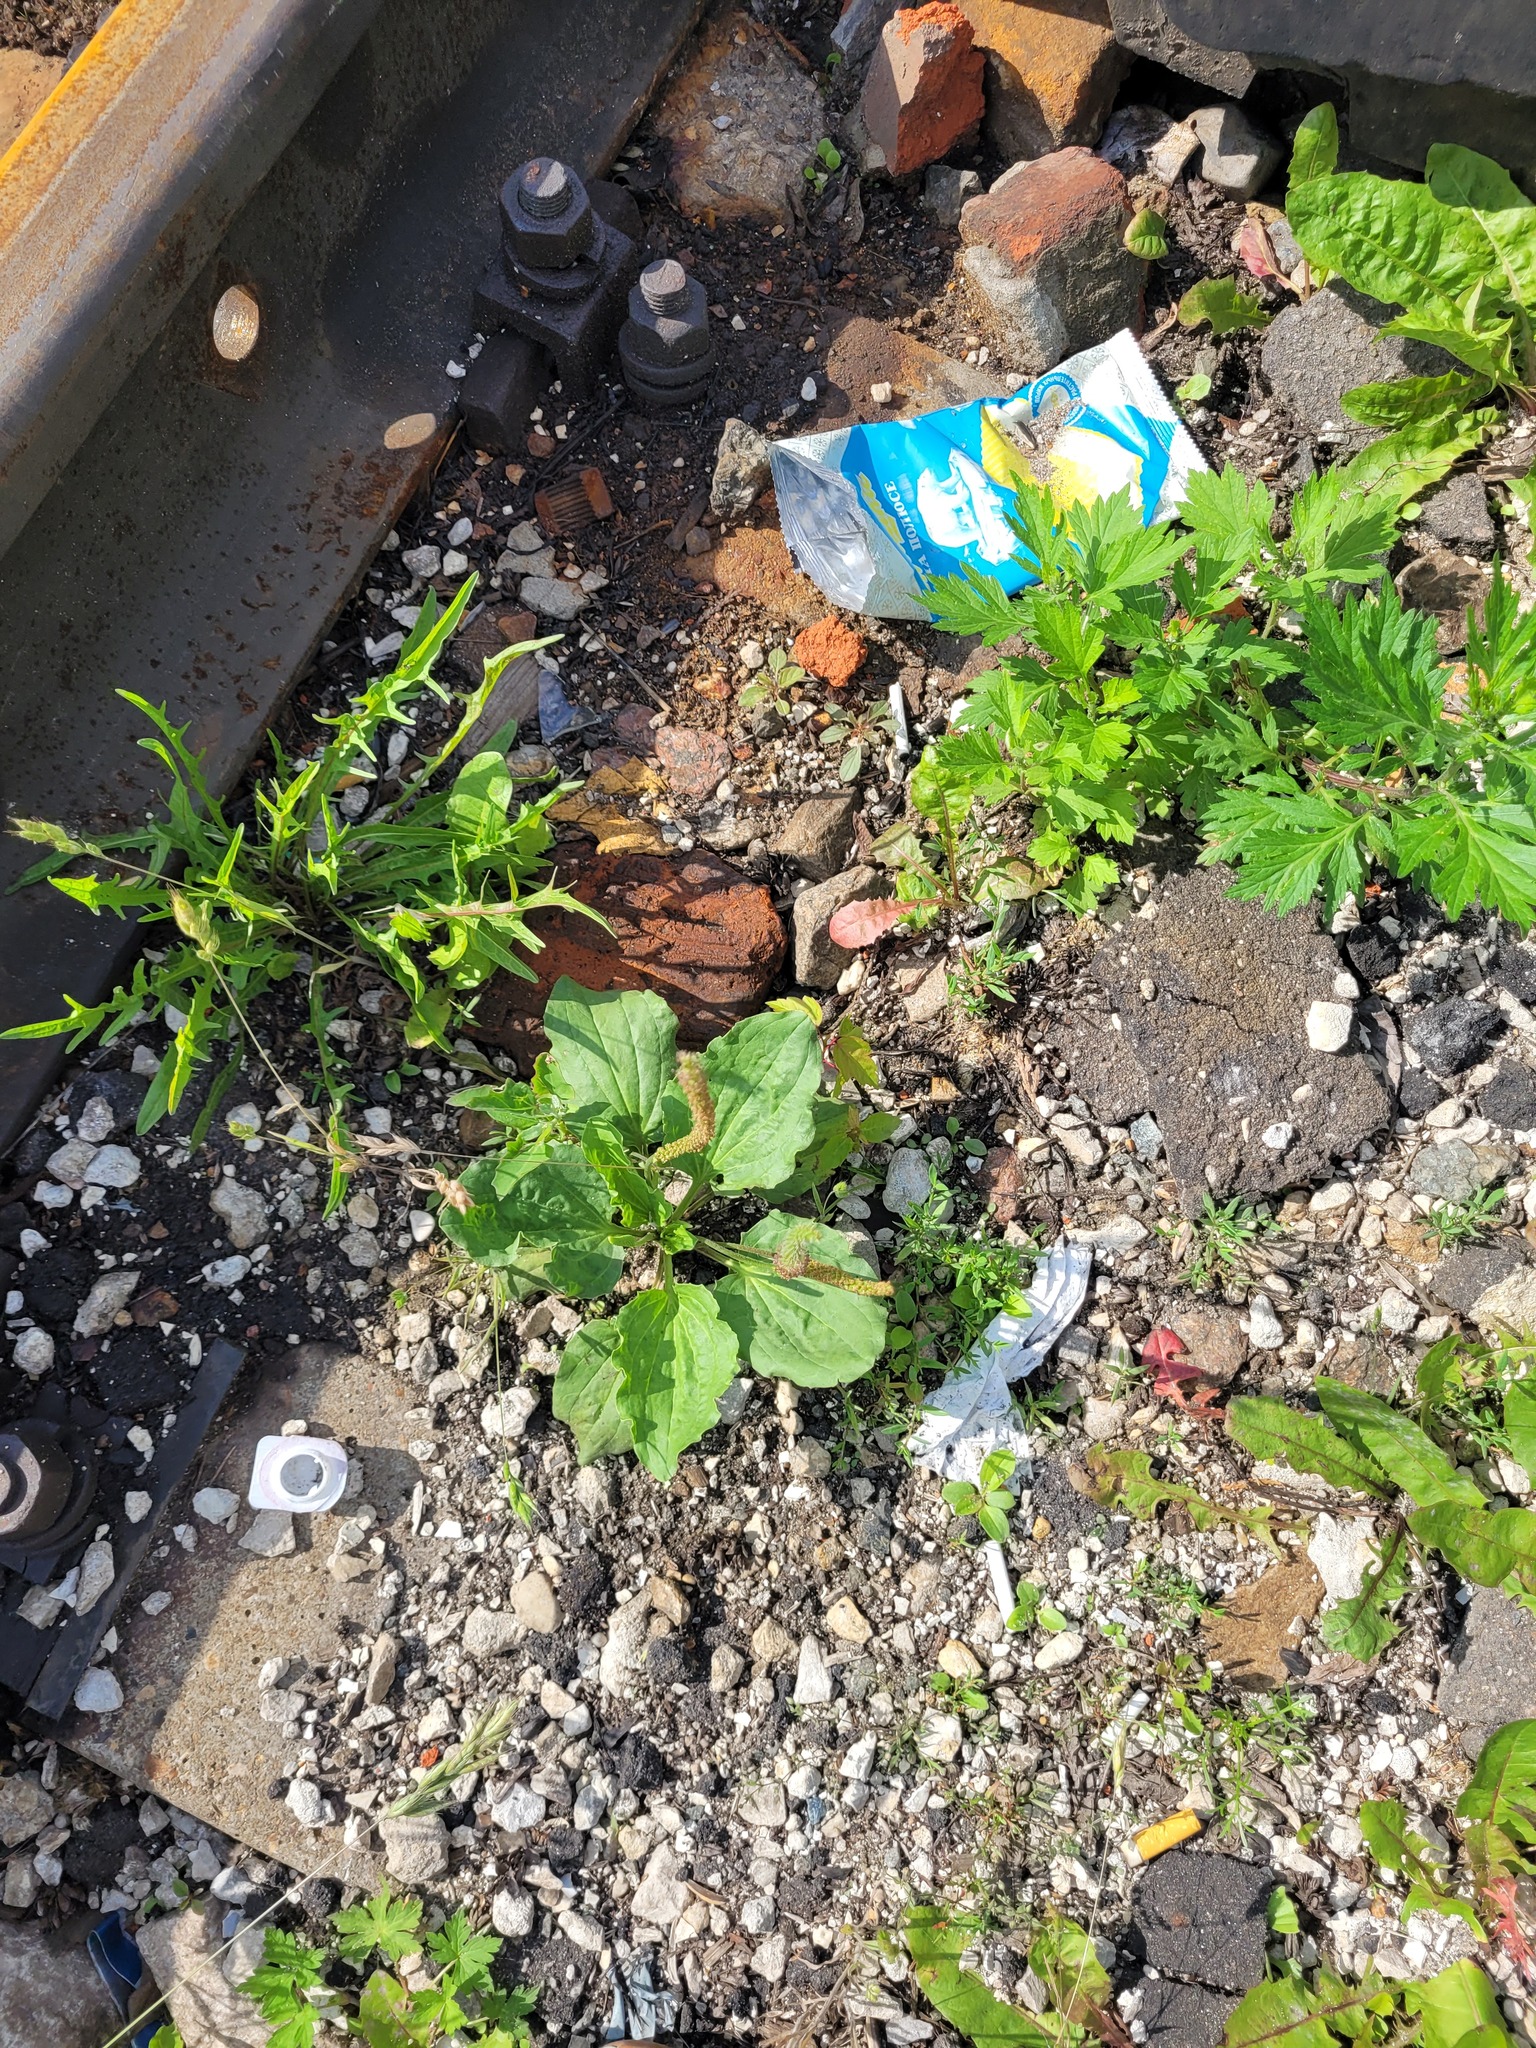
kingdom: Plantae
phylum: Tracheophyta
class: Magnoliopsida
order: Lamiales
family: Plantaginaceae
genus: Plantago
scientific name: Plantago major
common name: Common plantain
